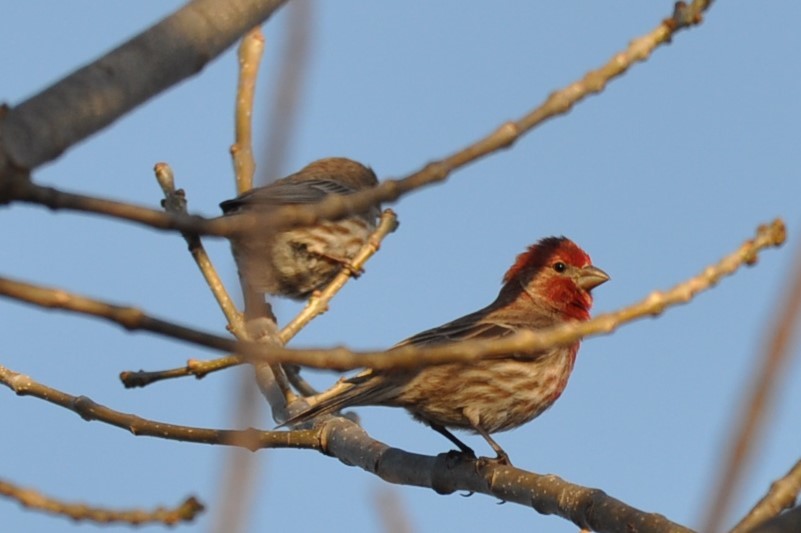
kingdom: Animalia
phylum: Chordata
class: Aves
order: Passeriformes
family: Fringillidae
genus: Haemorhous
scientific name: Haemorhous mexicanus
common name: House finch
